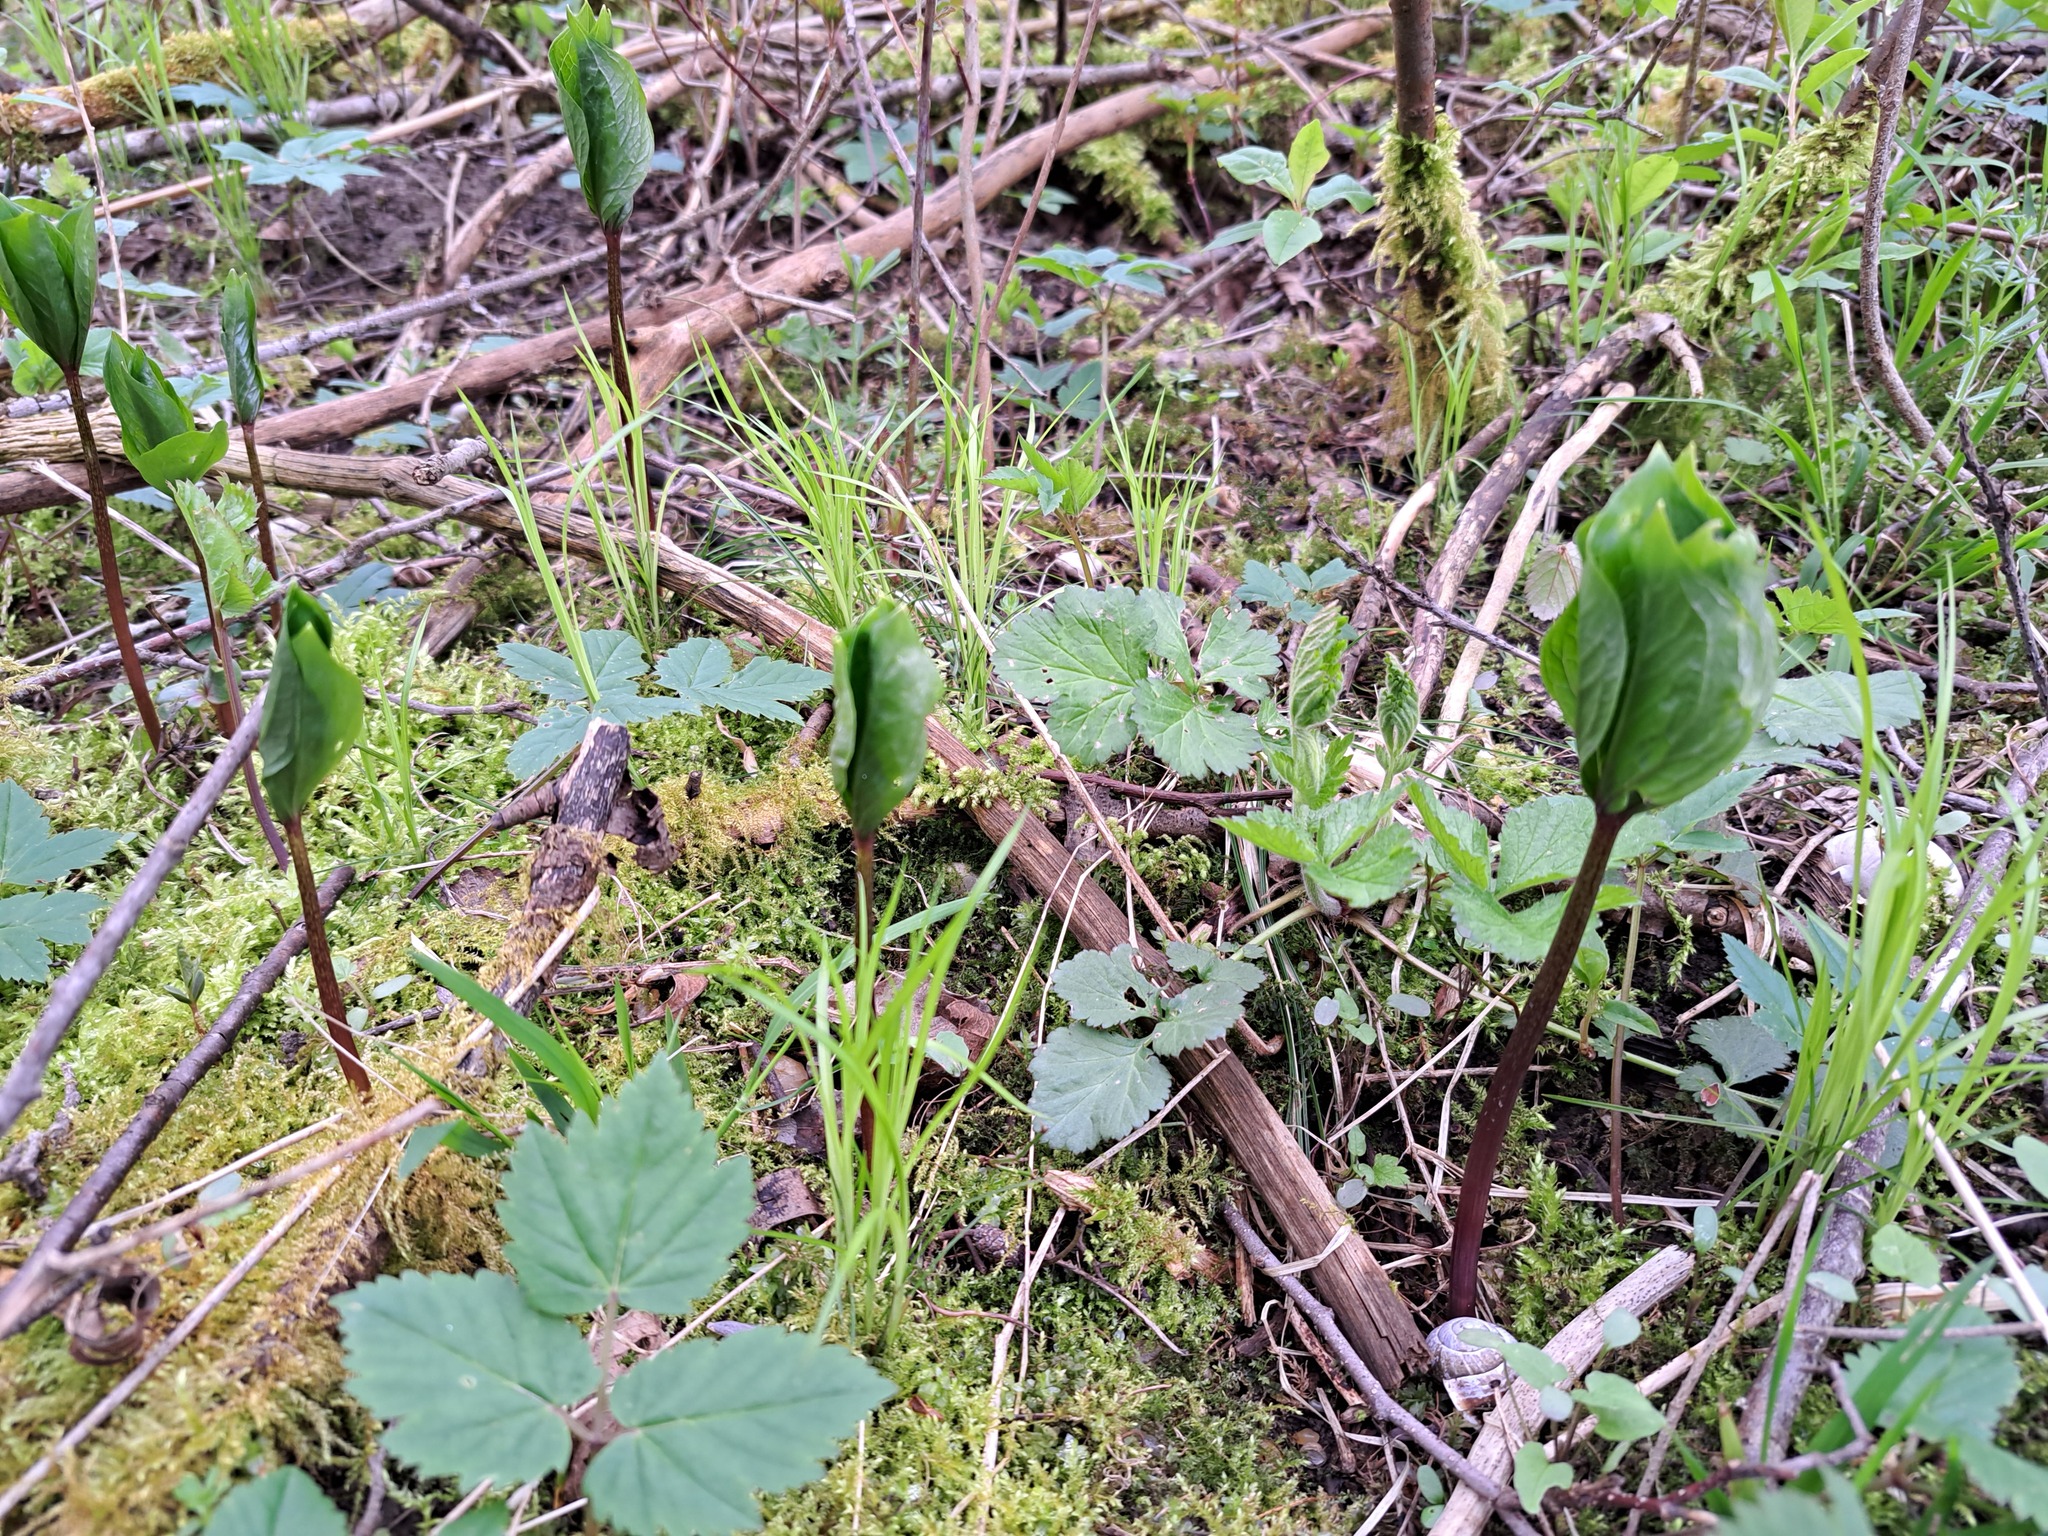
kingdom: Plantae
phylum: Tracheophyta
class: Liliopsida
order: Liliales
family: Melanthiaceae
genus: Paris
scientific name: Paris quadrifolia
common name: Herb-paris
